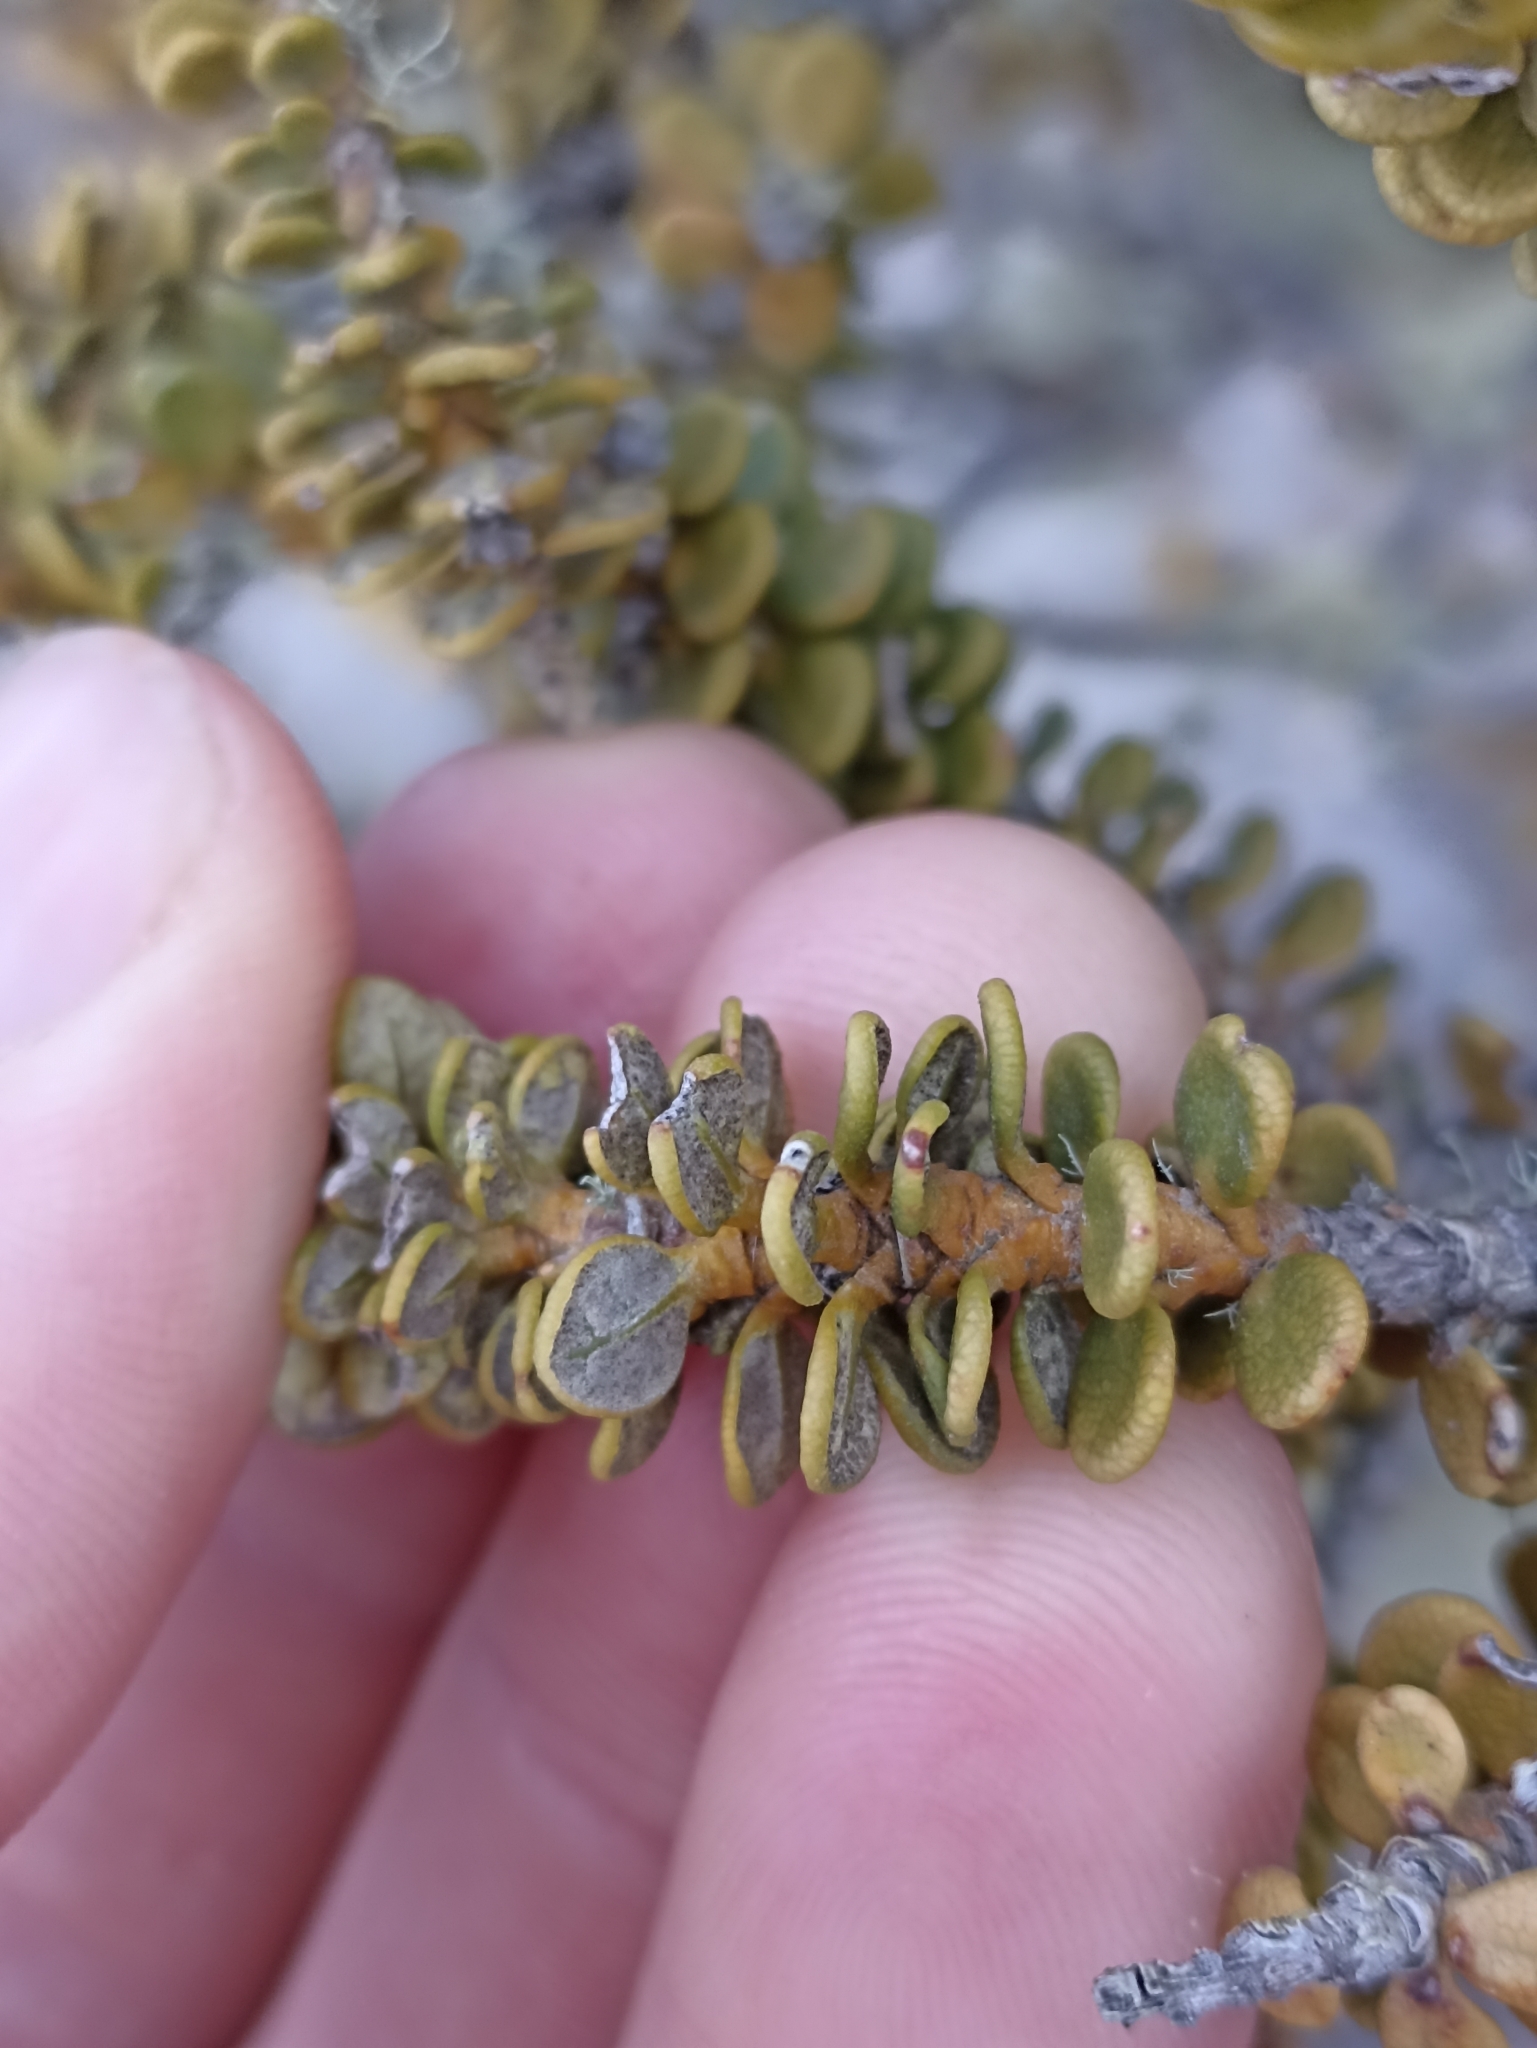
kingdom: Plantae
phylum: Tracheophyta
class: Magnoliopsida
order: Asterales
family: Asteraceae
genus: Olearia
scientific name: Olearia nummularifolia
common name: Sticky daisybush
